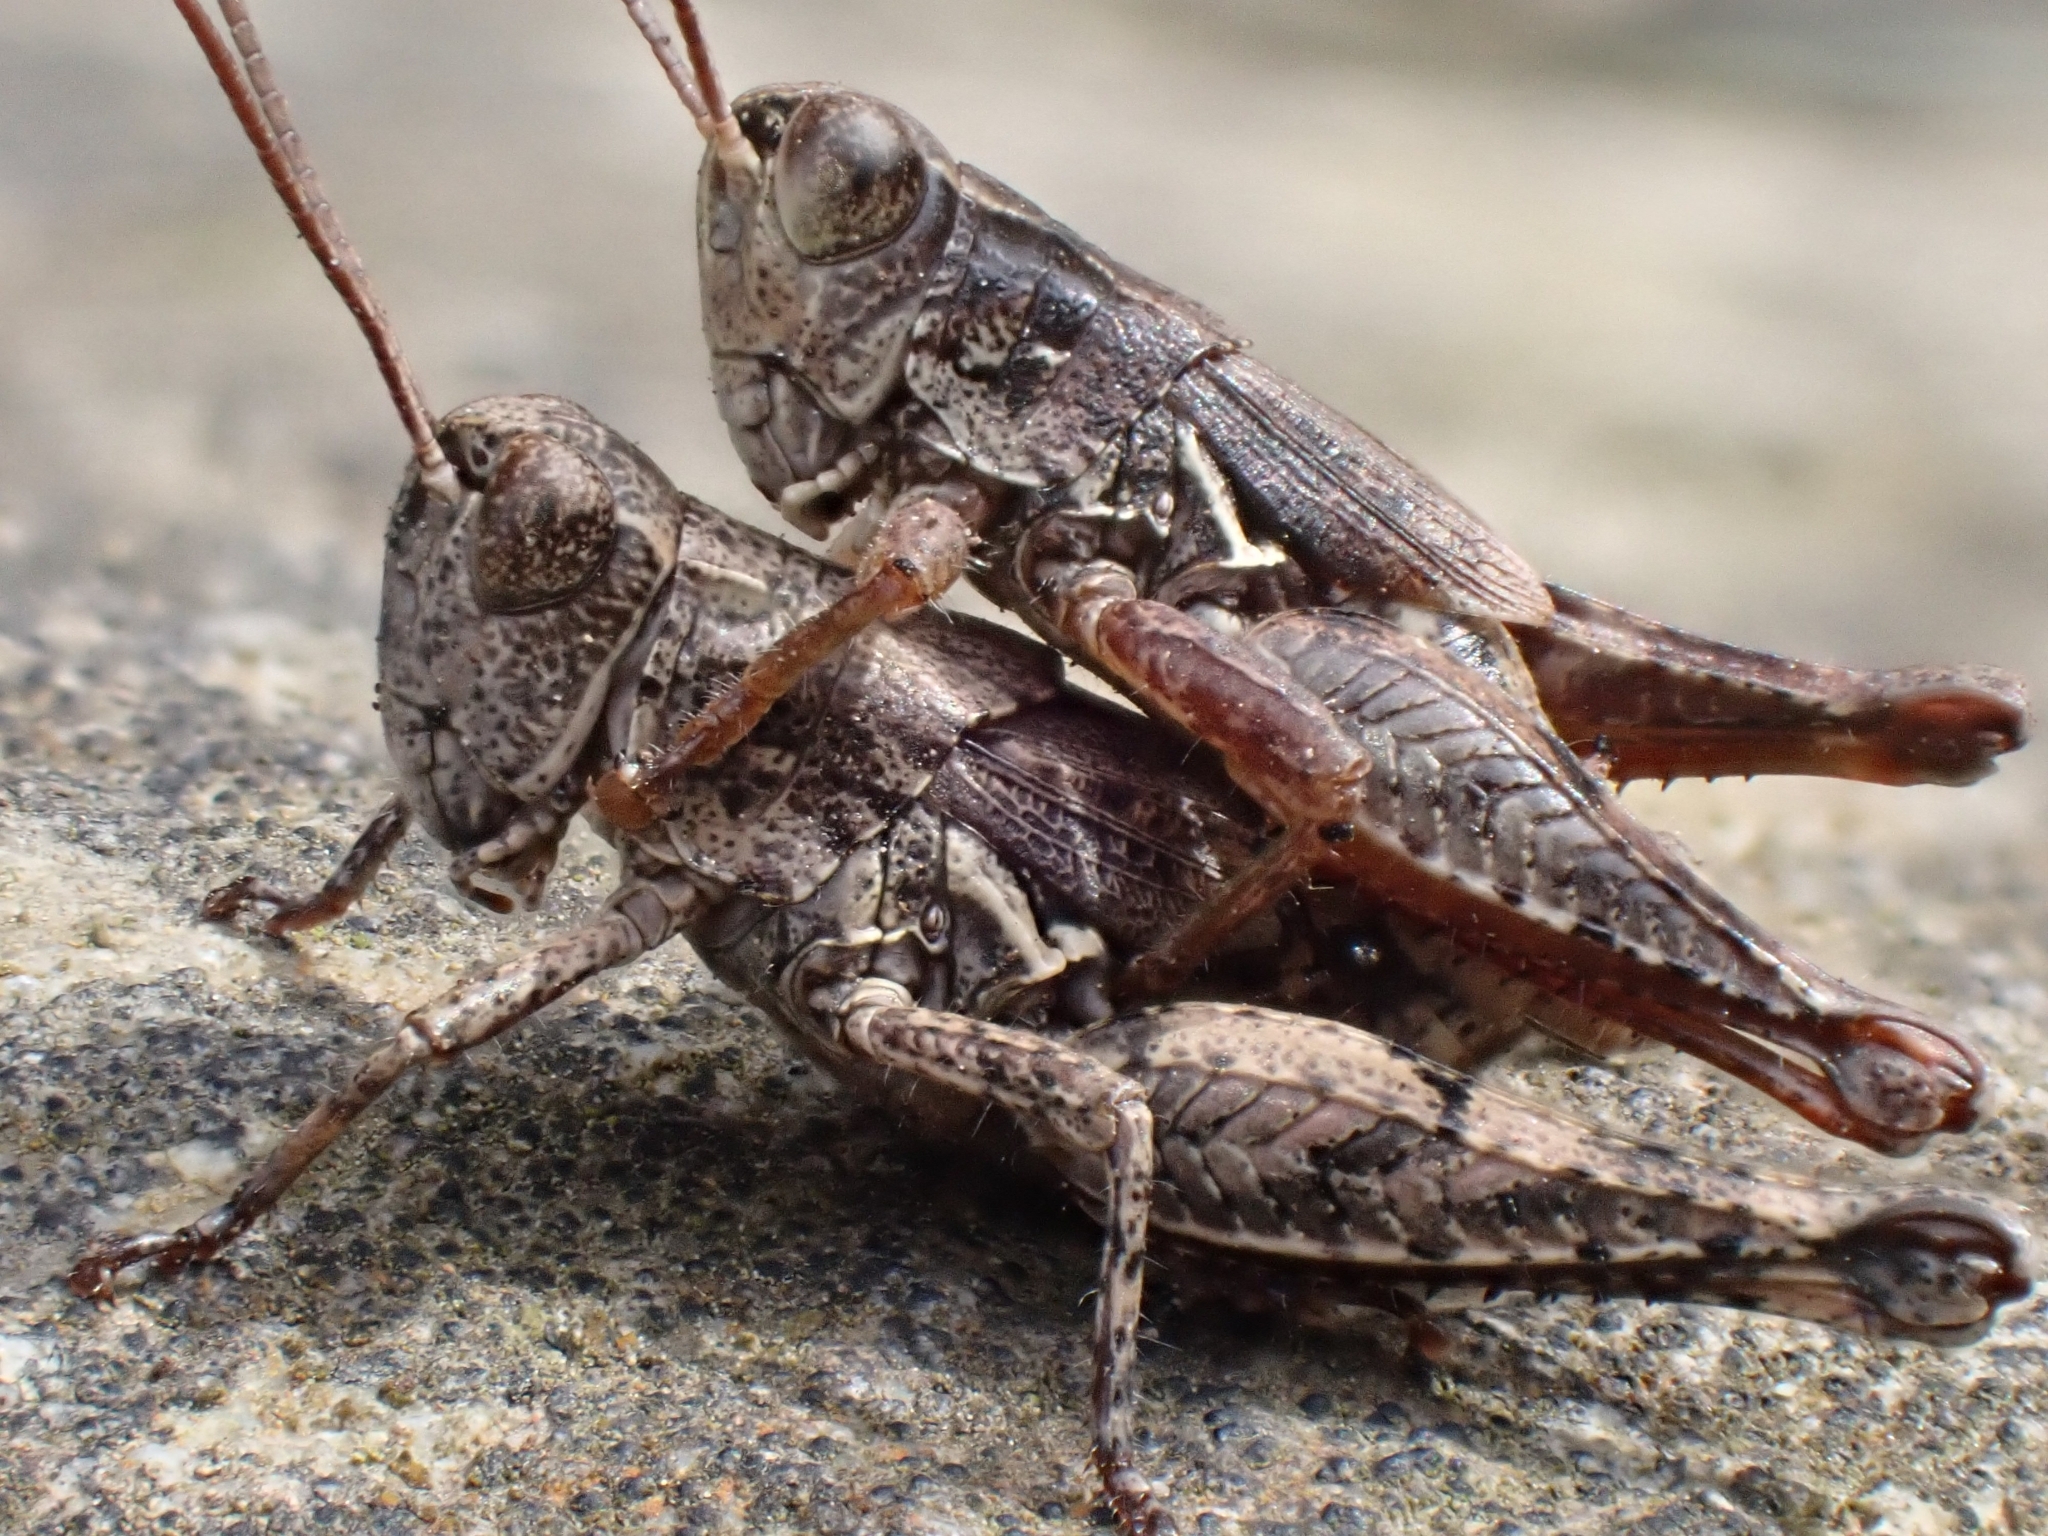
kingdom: Animalia
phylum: Arthropoda
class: Insecta
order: Orthoptera
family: Acrididae
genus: Phaulacridium
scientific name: Phaulacridium marginale
